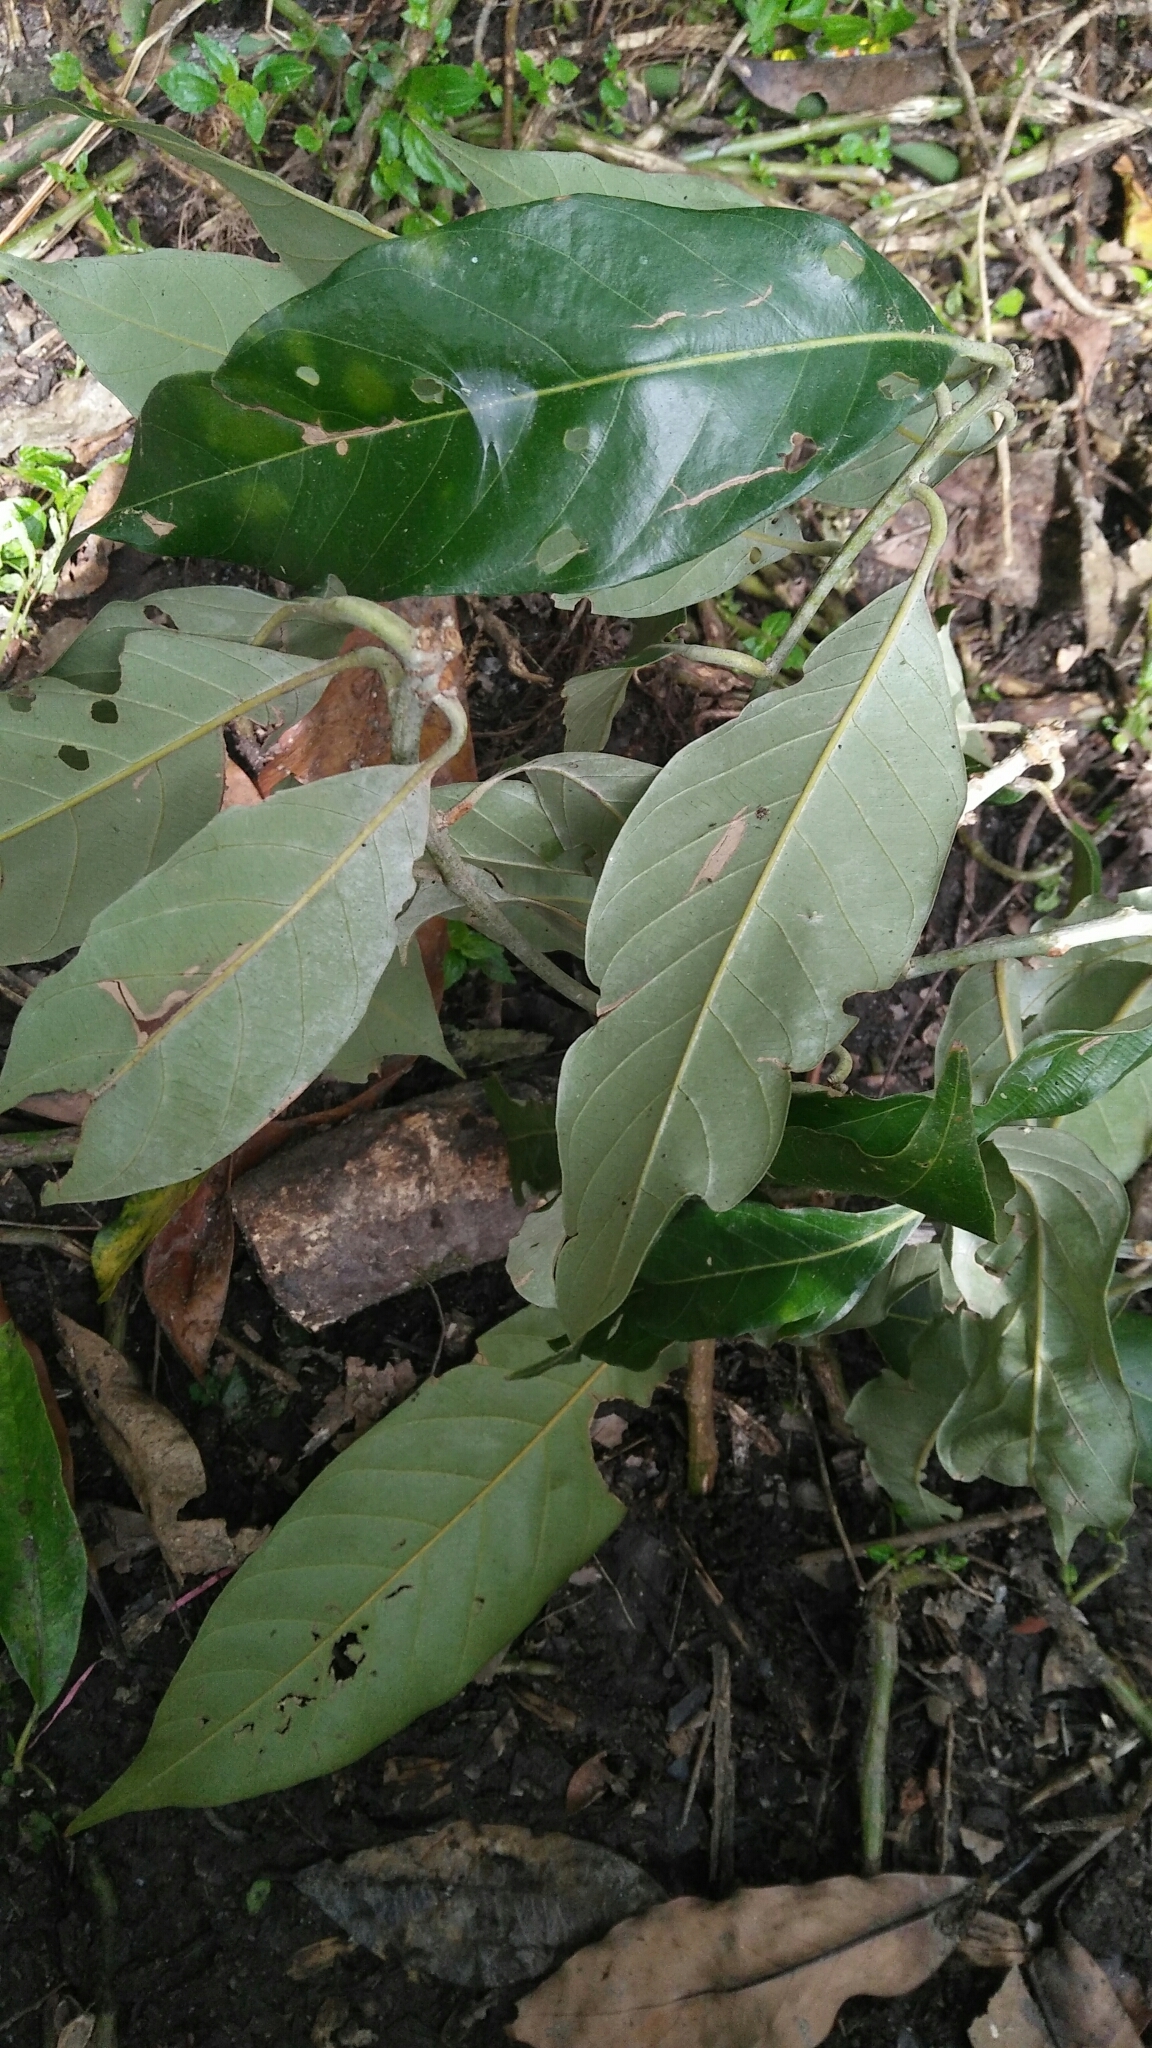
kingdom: Plantae
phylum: Tracheophyta
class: Magnoliopsida
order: Fagales
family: Fagaceae
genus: Lithocarpus
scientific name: Lithocarpus lepidocarpus
